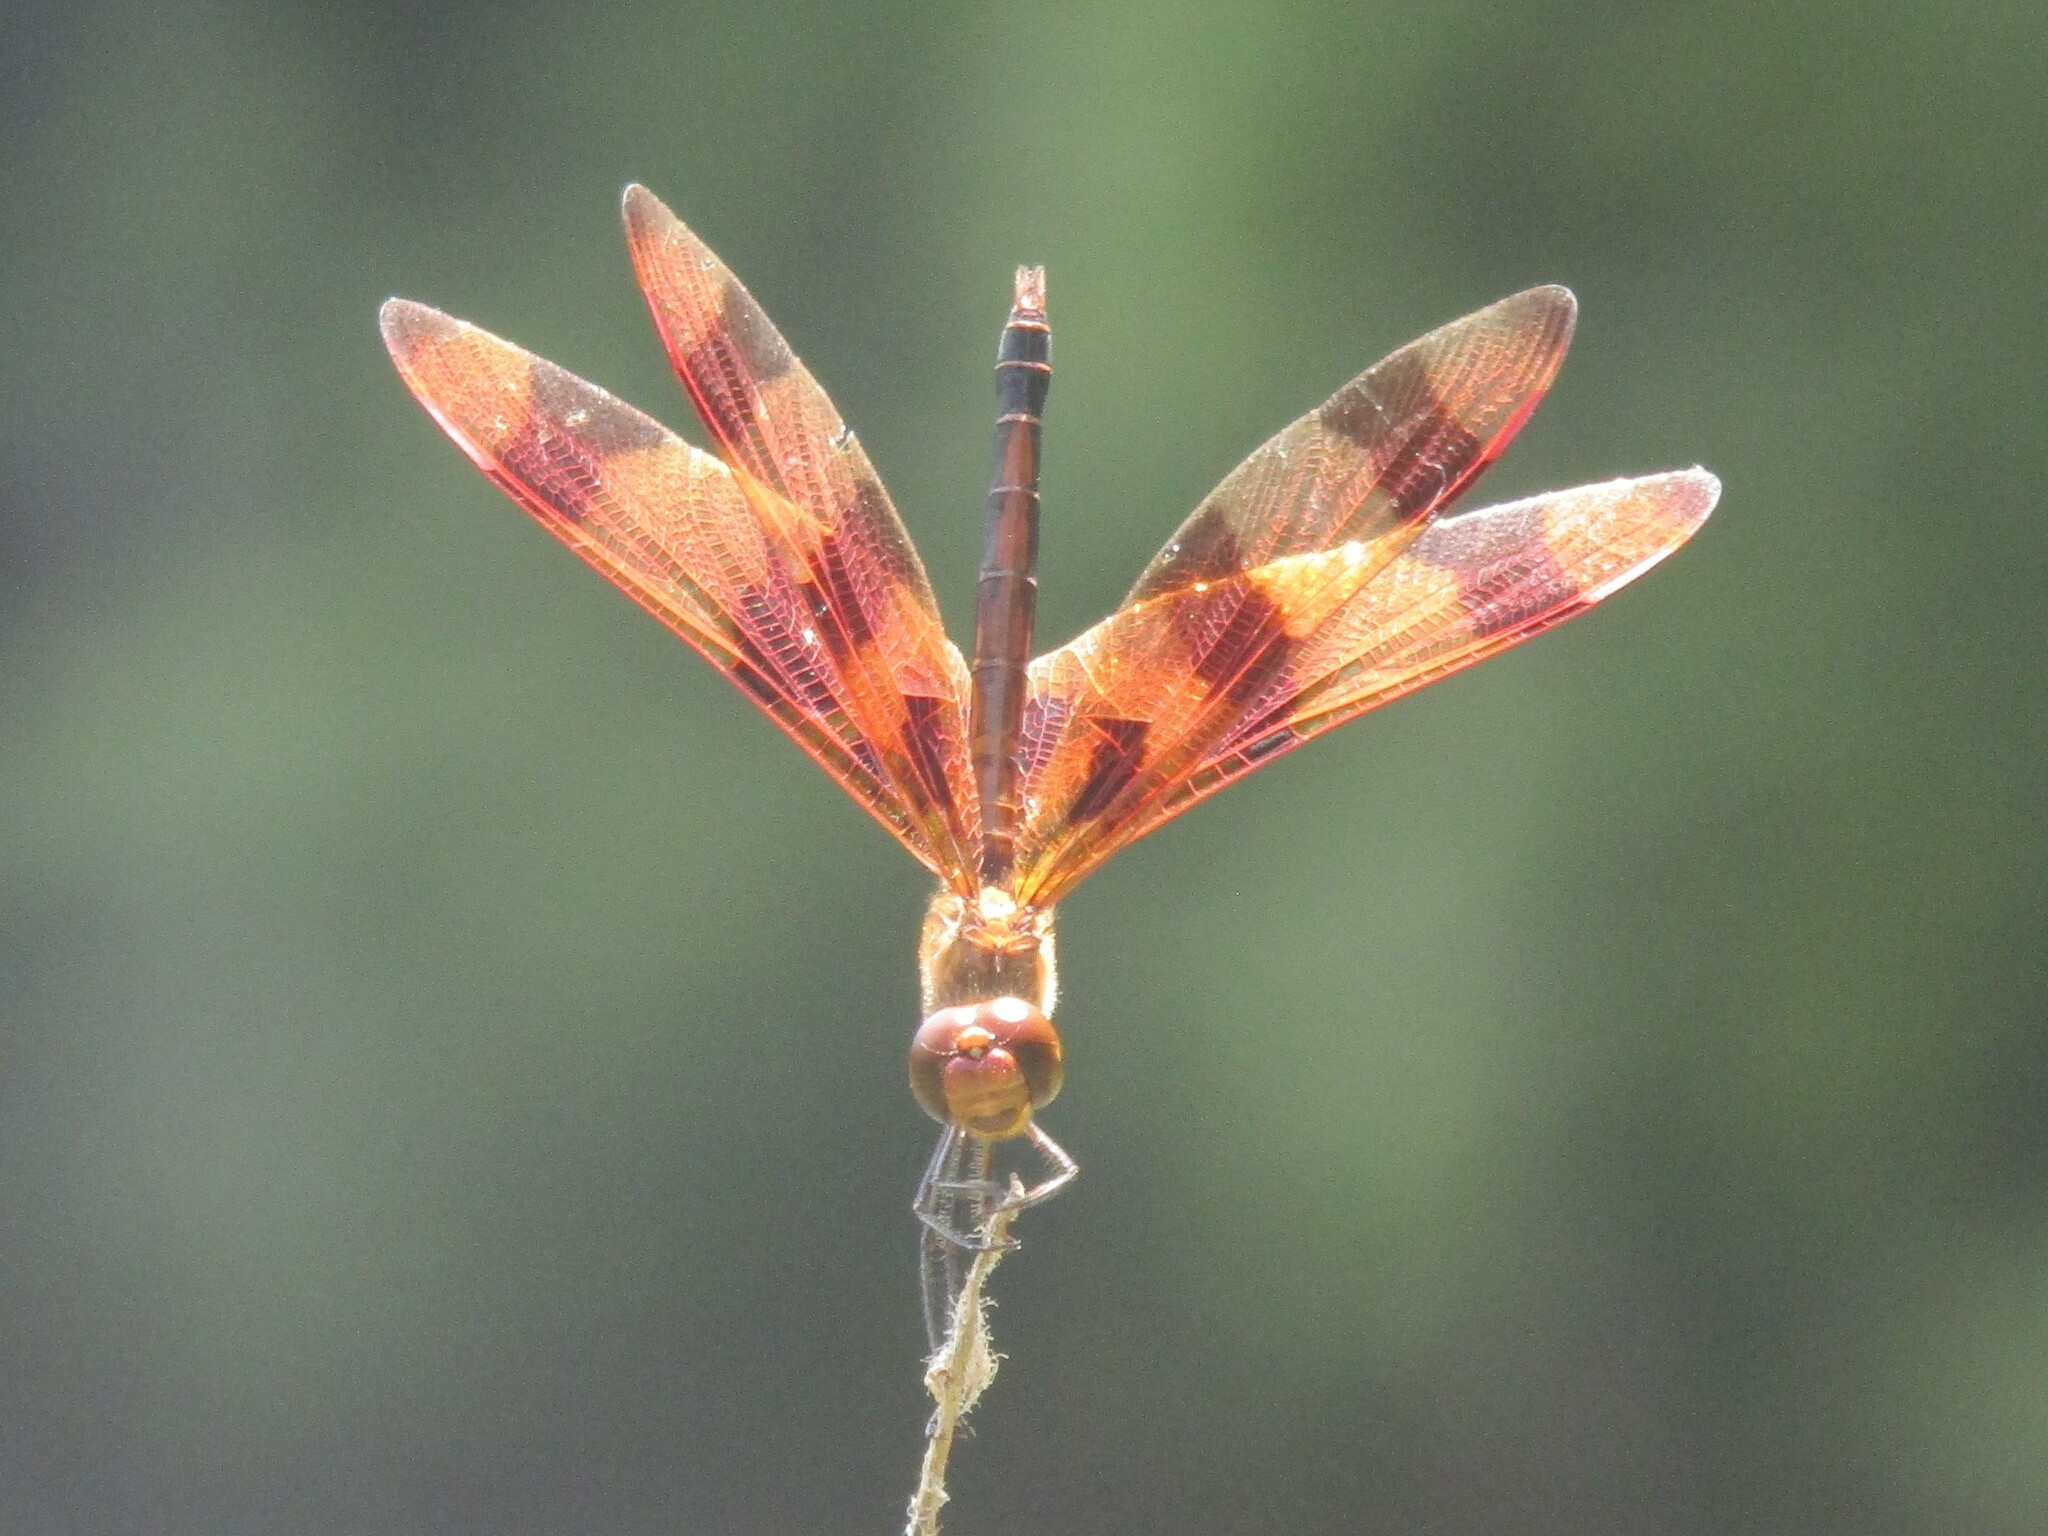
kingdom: Animalia
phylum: Arthropoda
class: Insecta
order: Odonata
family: Libellulidae
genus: Celithemis
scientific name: Celithemis eponina
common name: Halloween pennant
